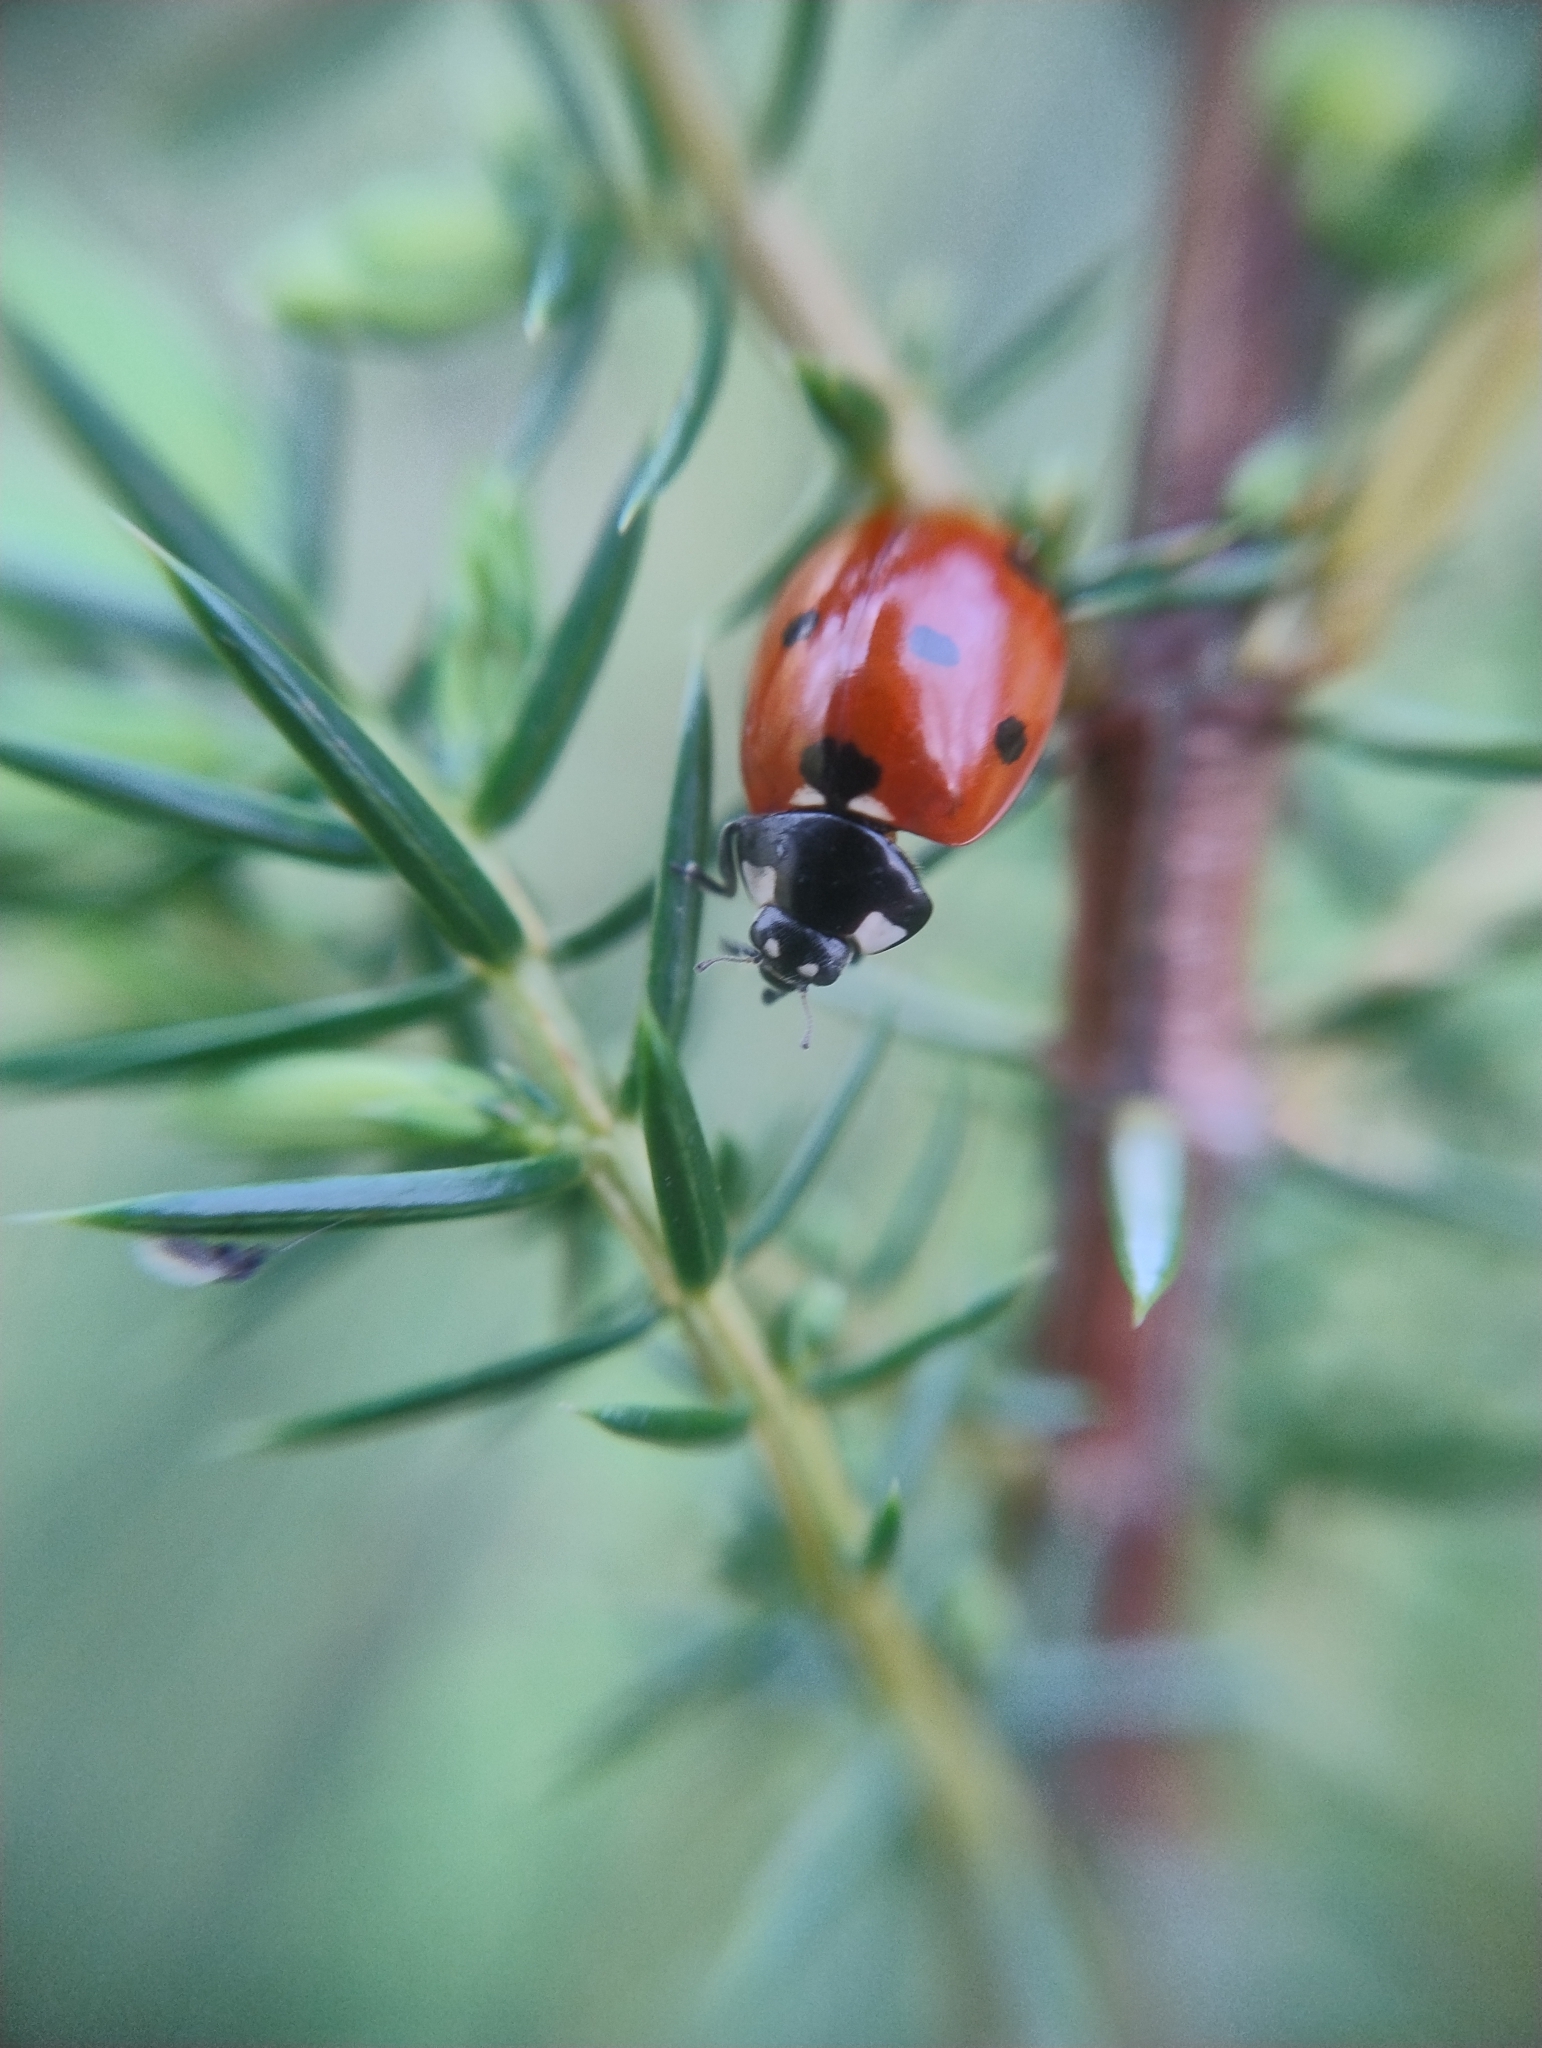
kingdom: Animalia
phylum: Arthropoda
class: Insecta
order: Coleoptera
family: Coccinellidae
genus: Coccinella
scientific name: Coccinella septempunctata
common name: Sevenspotted lady beetle
